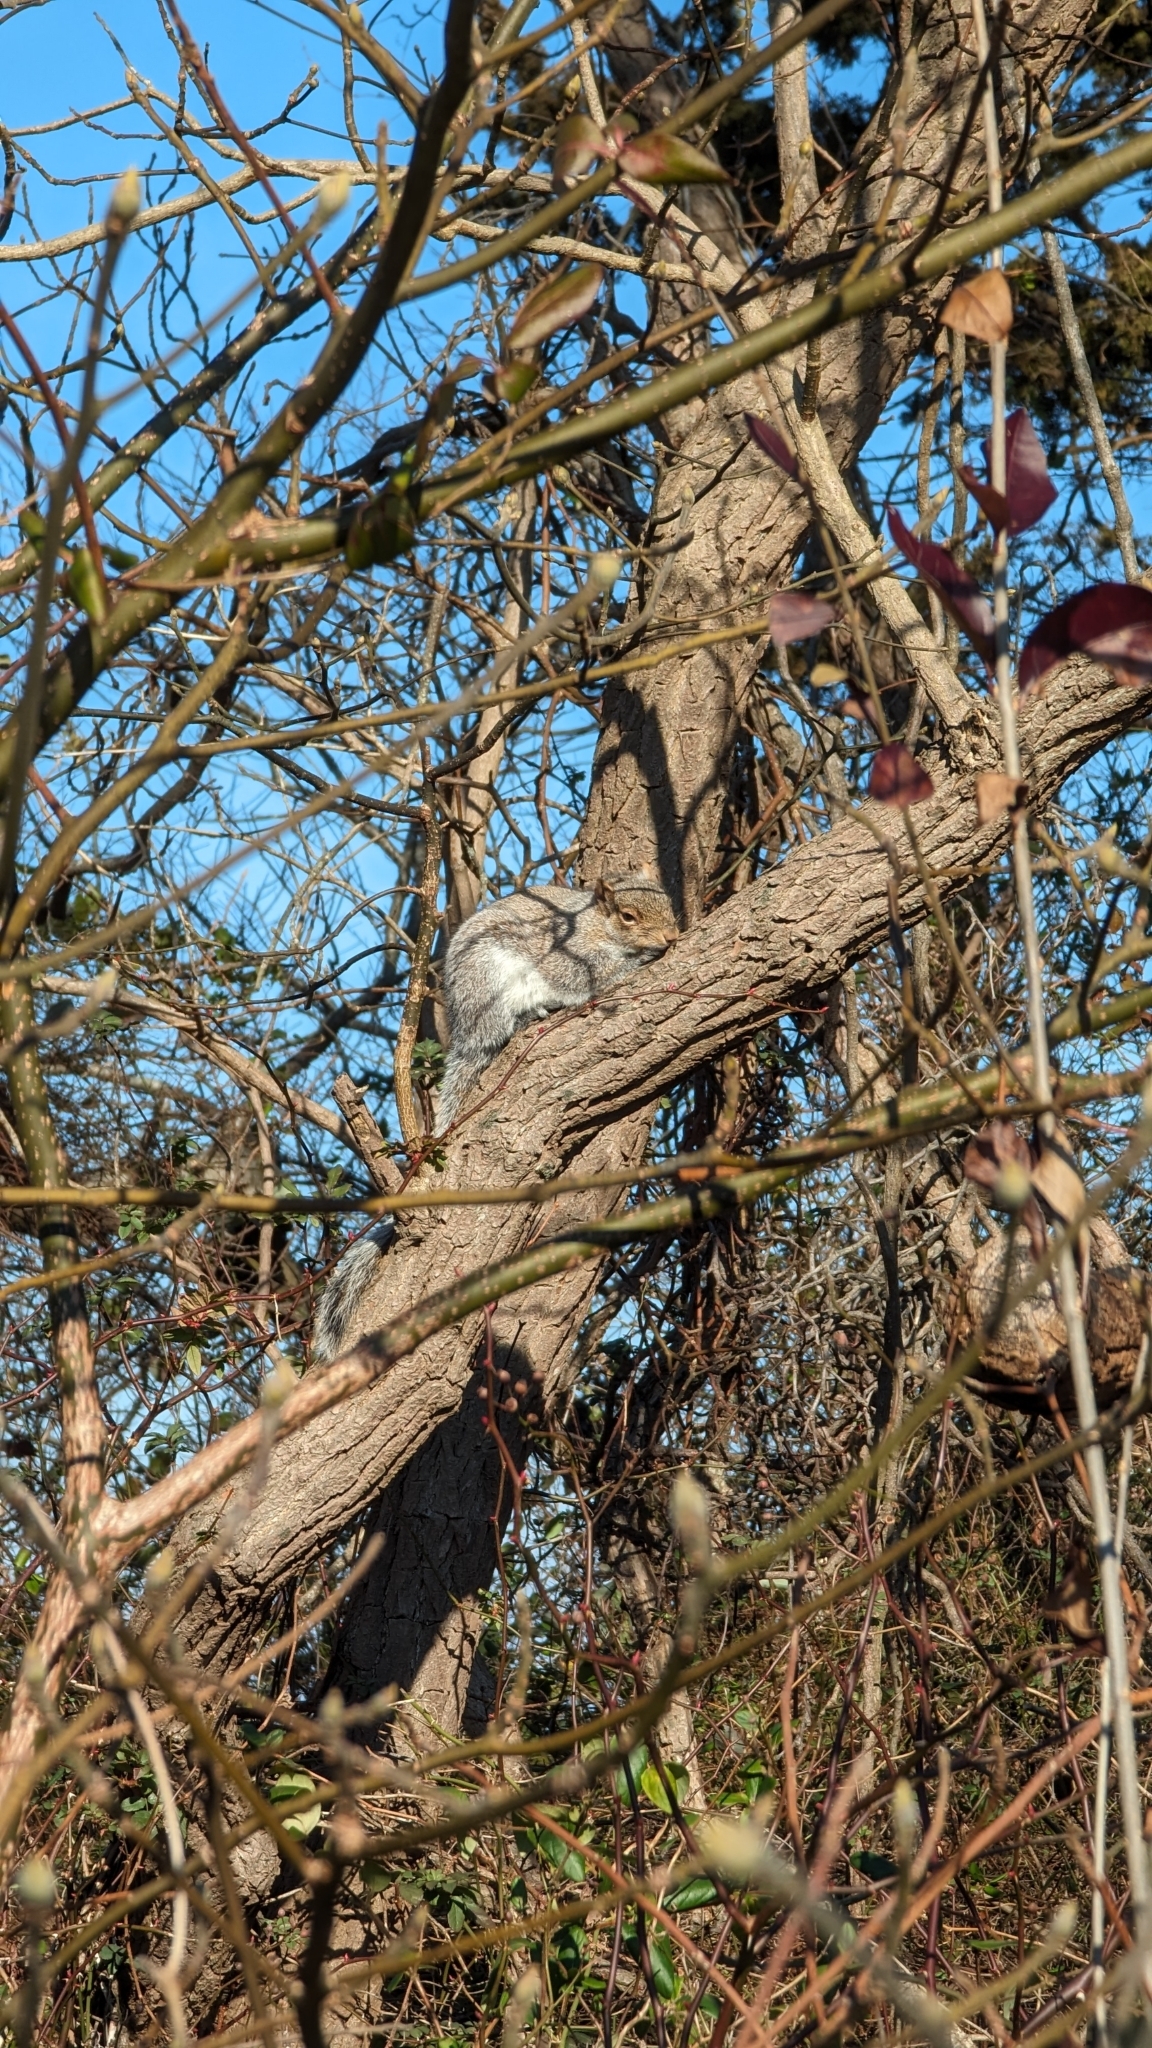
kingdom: Animalia
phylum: Chordata
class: Mammalia
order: Rodentia
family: Sciuridae
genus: Sciurus
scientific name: Sciurus carolinensis
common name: Eastern gray squirrel
